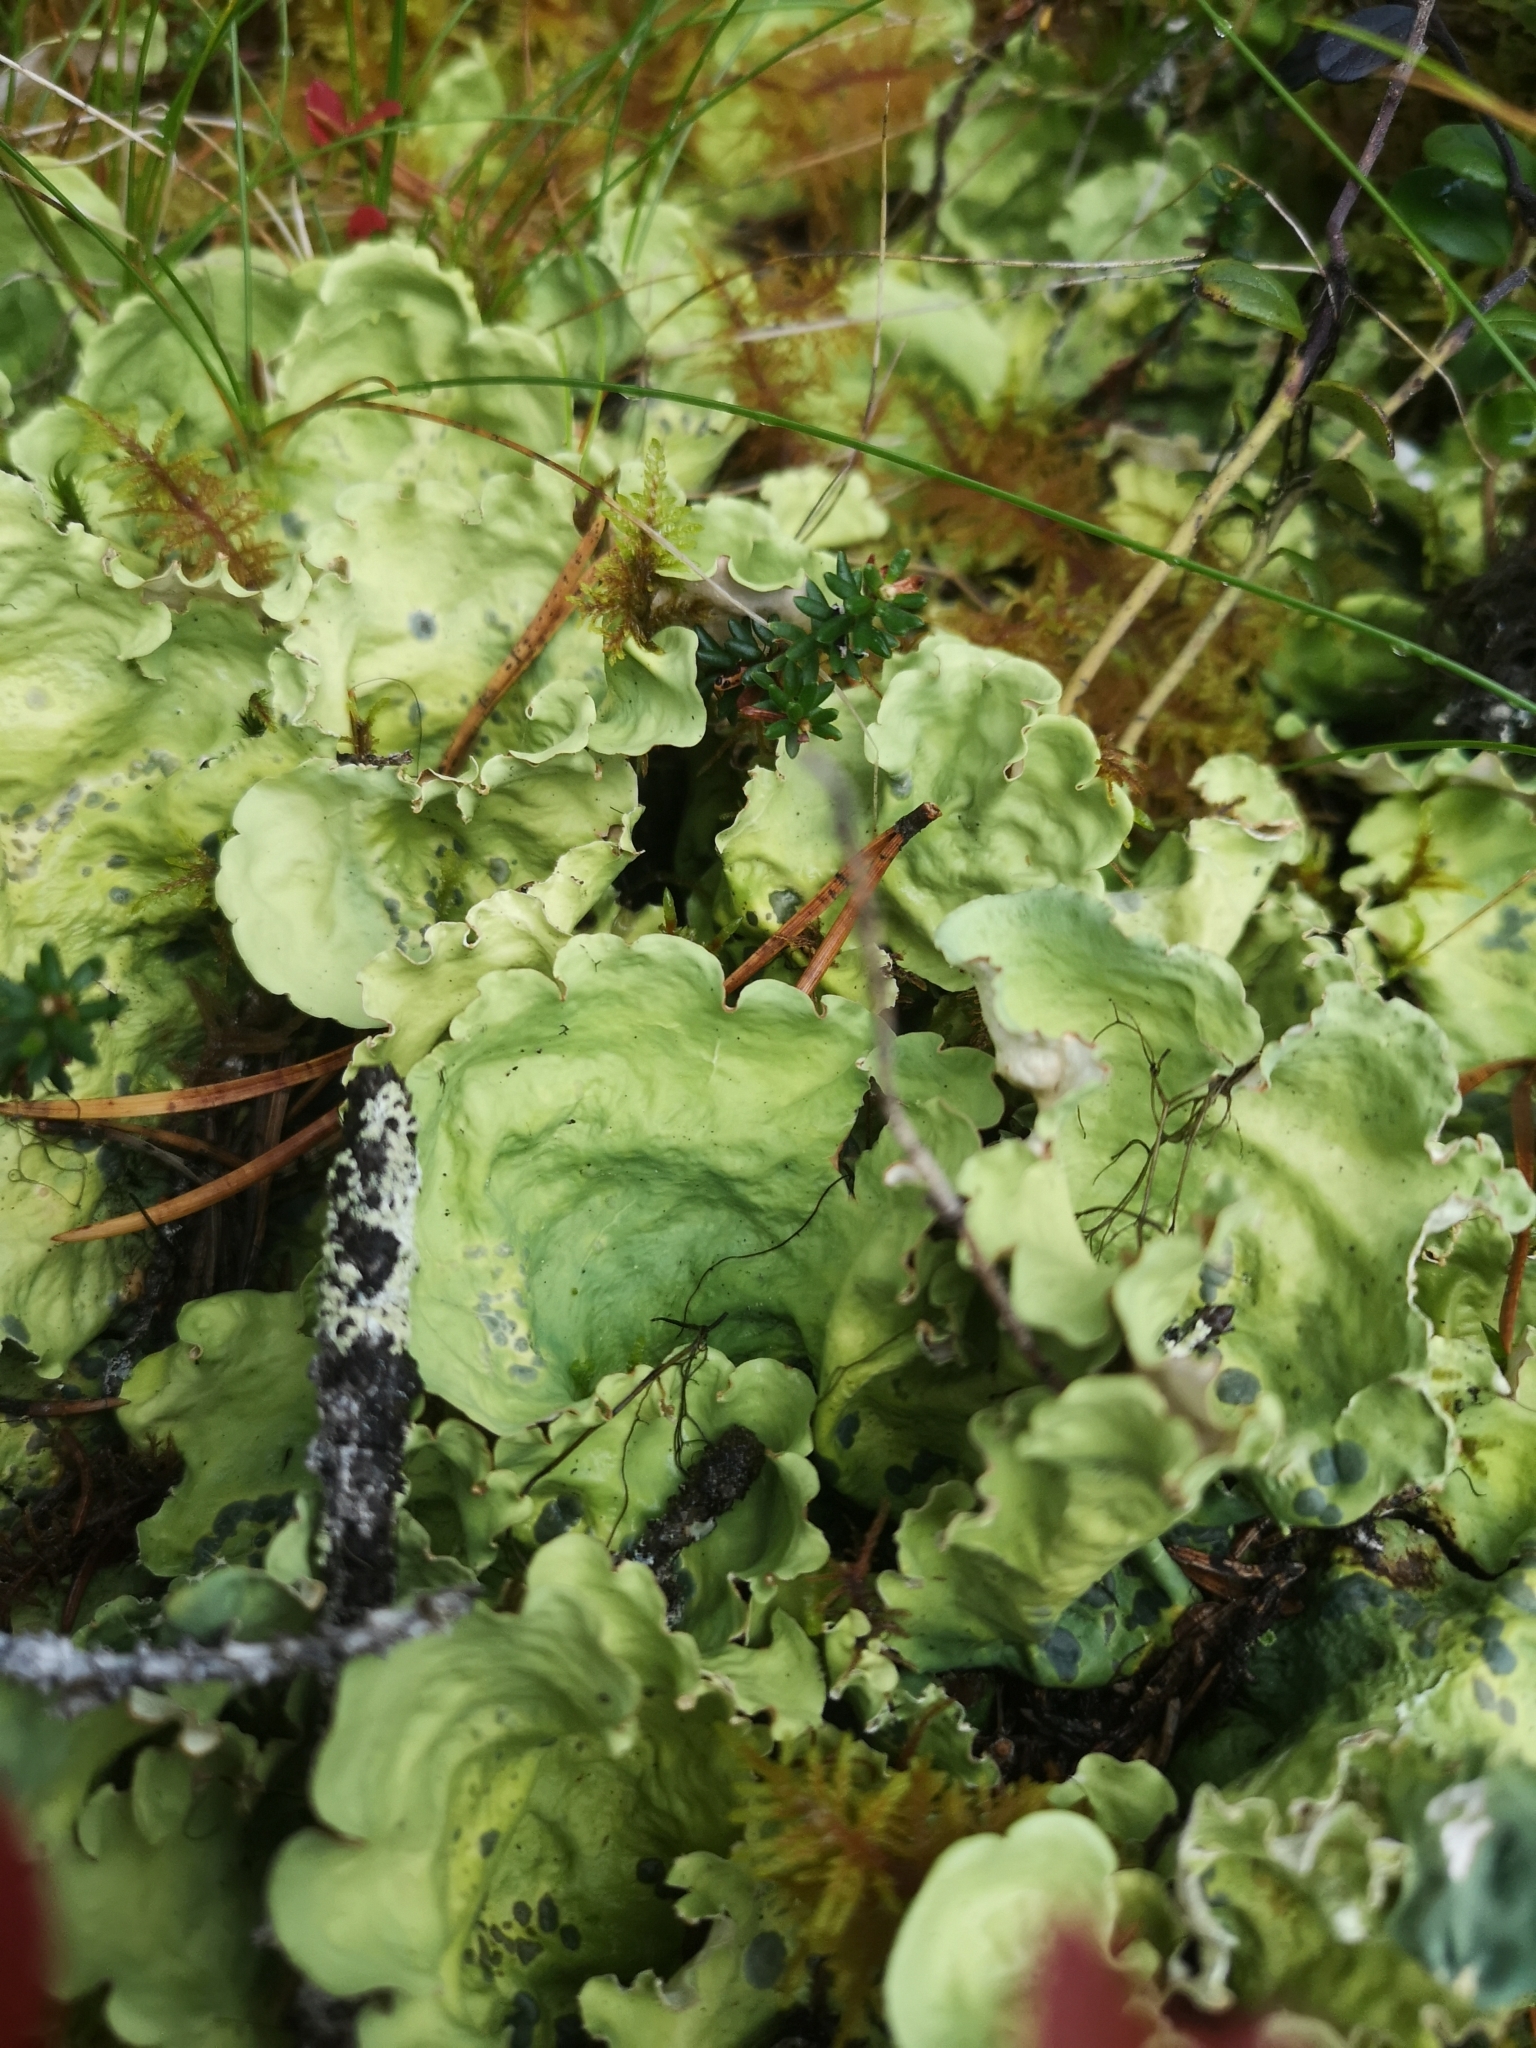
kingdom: Fungi
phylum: Ascomycota
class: Lecanoromycetes
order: Peltigerales
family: Nephromataceae
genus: Nephroma
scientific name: Nephroma arcticum
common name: Arctic kidney-lichen
